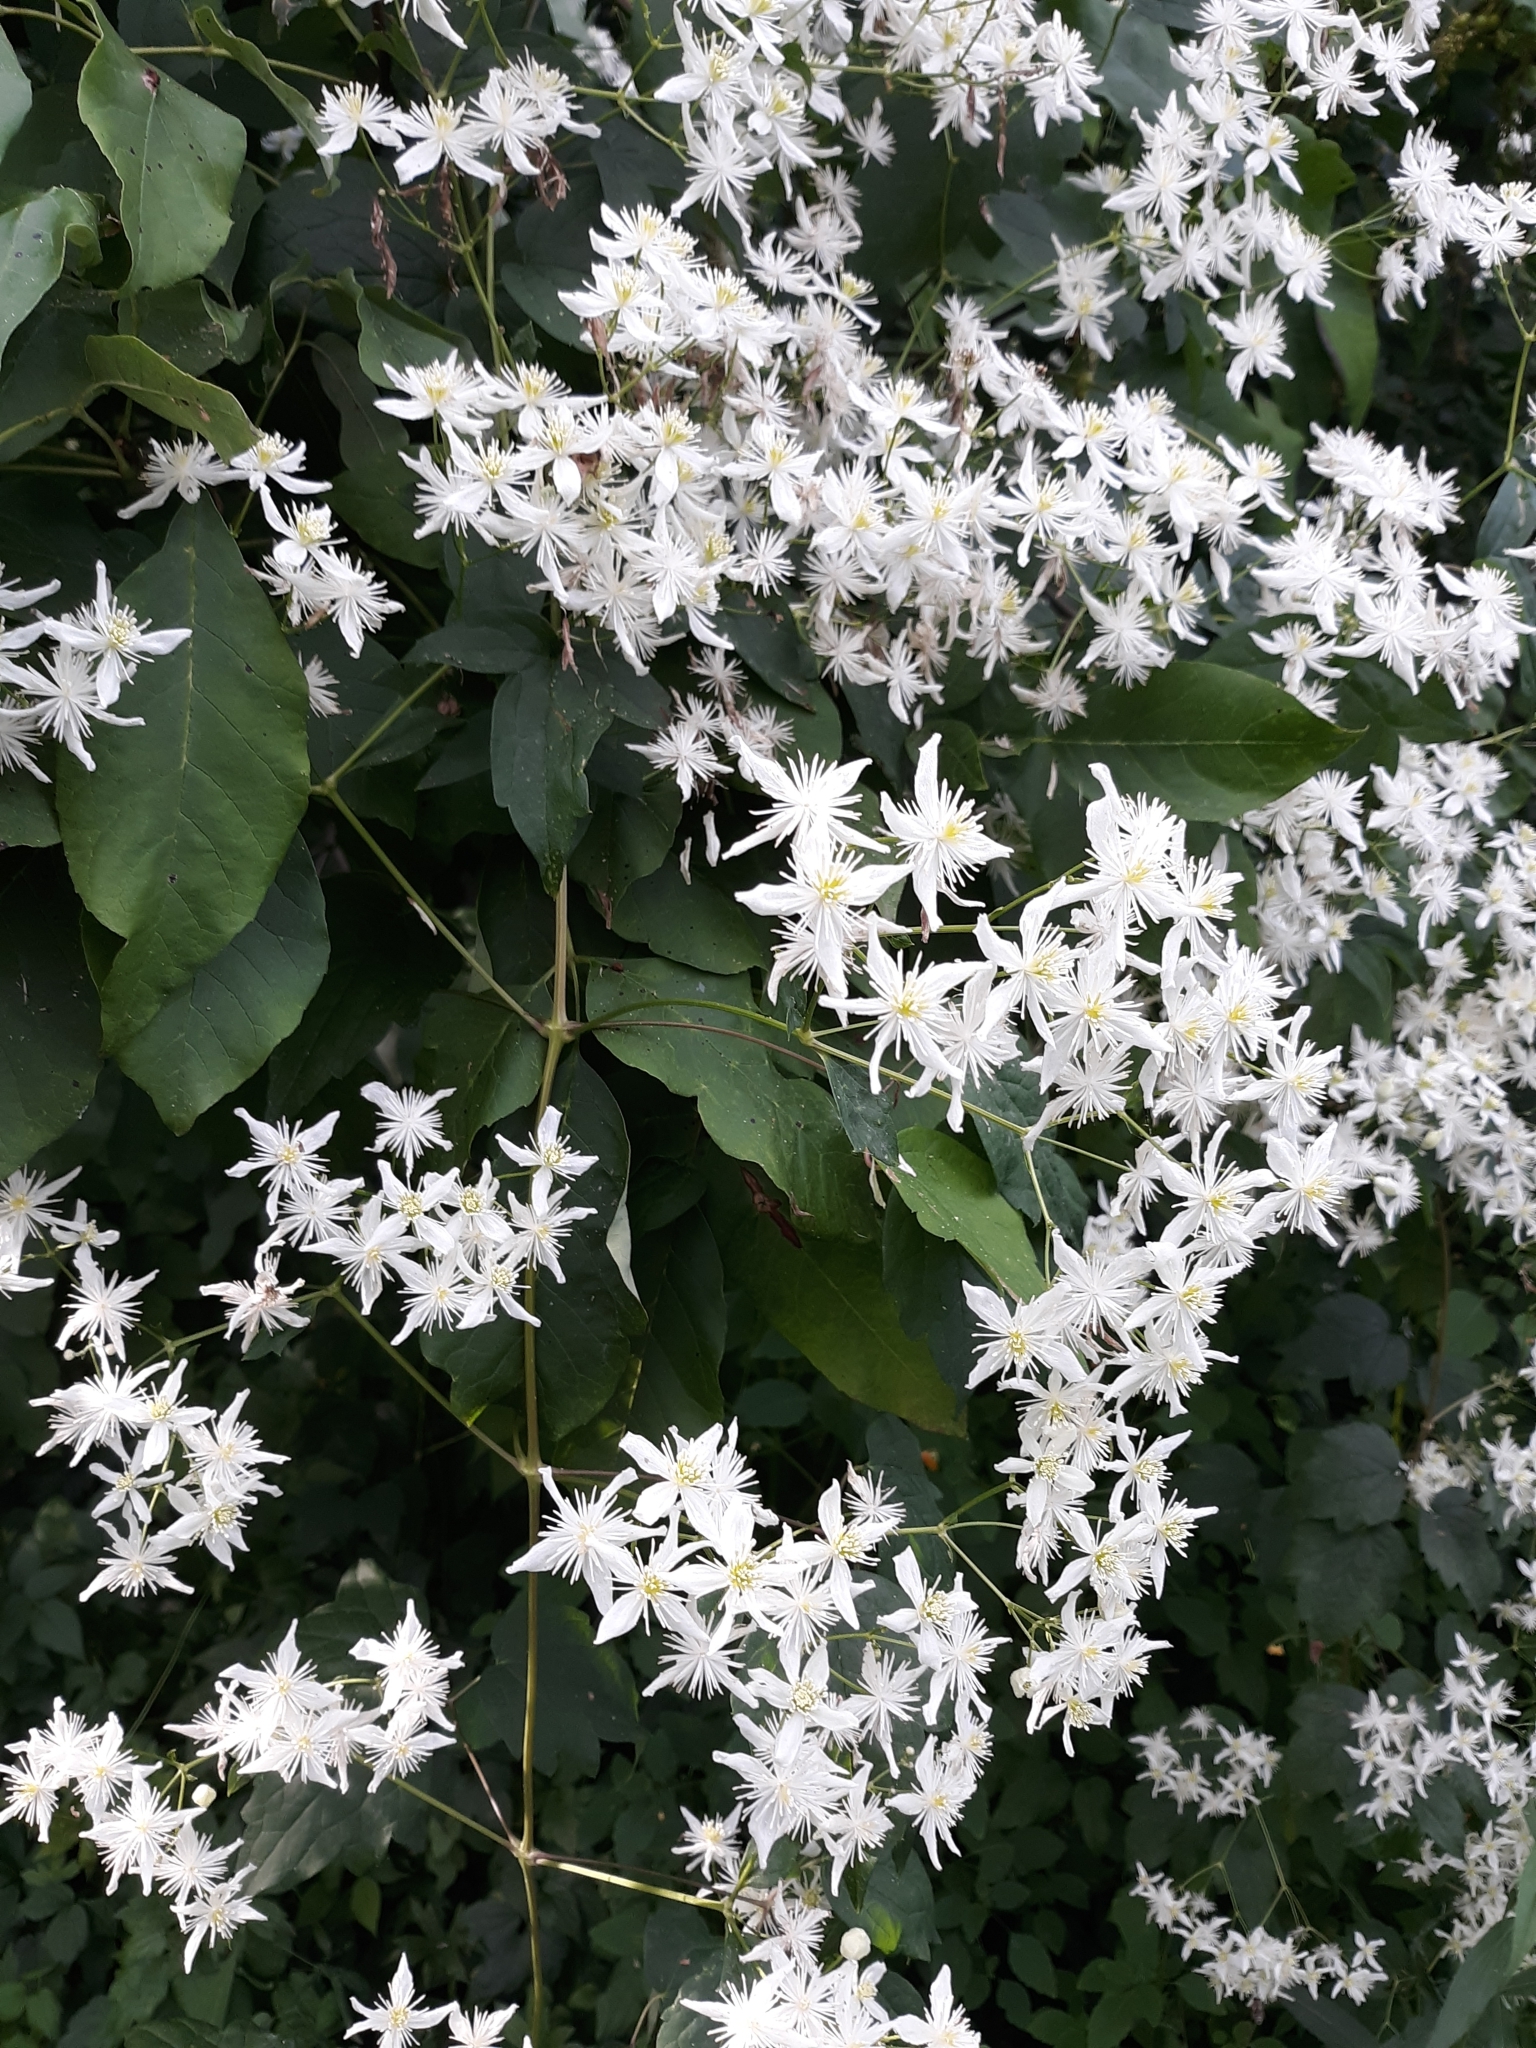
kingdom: Plantae
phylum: Tracheophyta
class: Magnoliopsida
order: Ranunculales
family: Ranunculaceae
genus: Clematis
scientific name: Clematis virginiana
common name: Virgin's-bower
